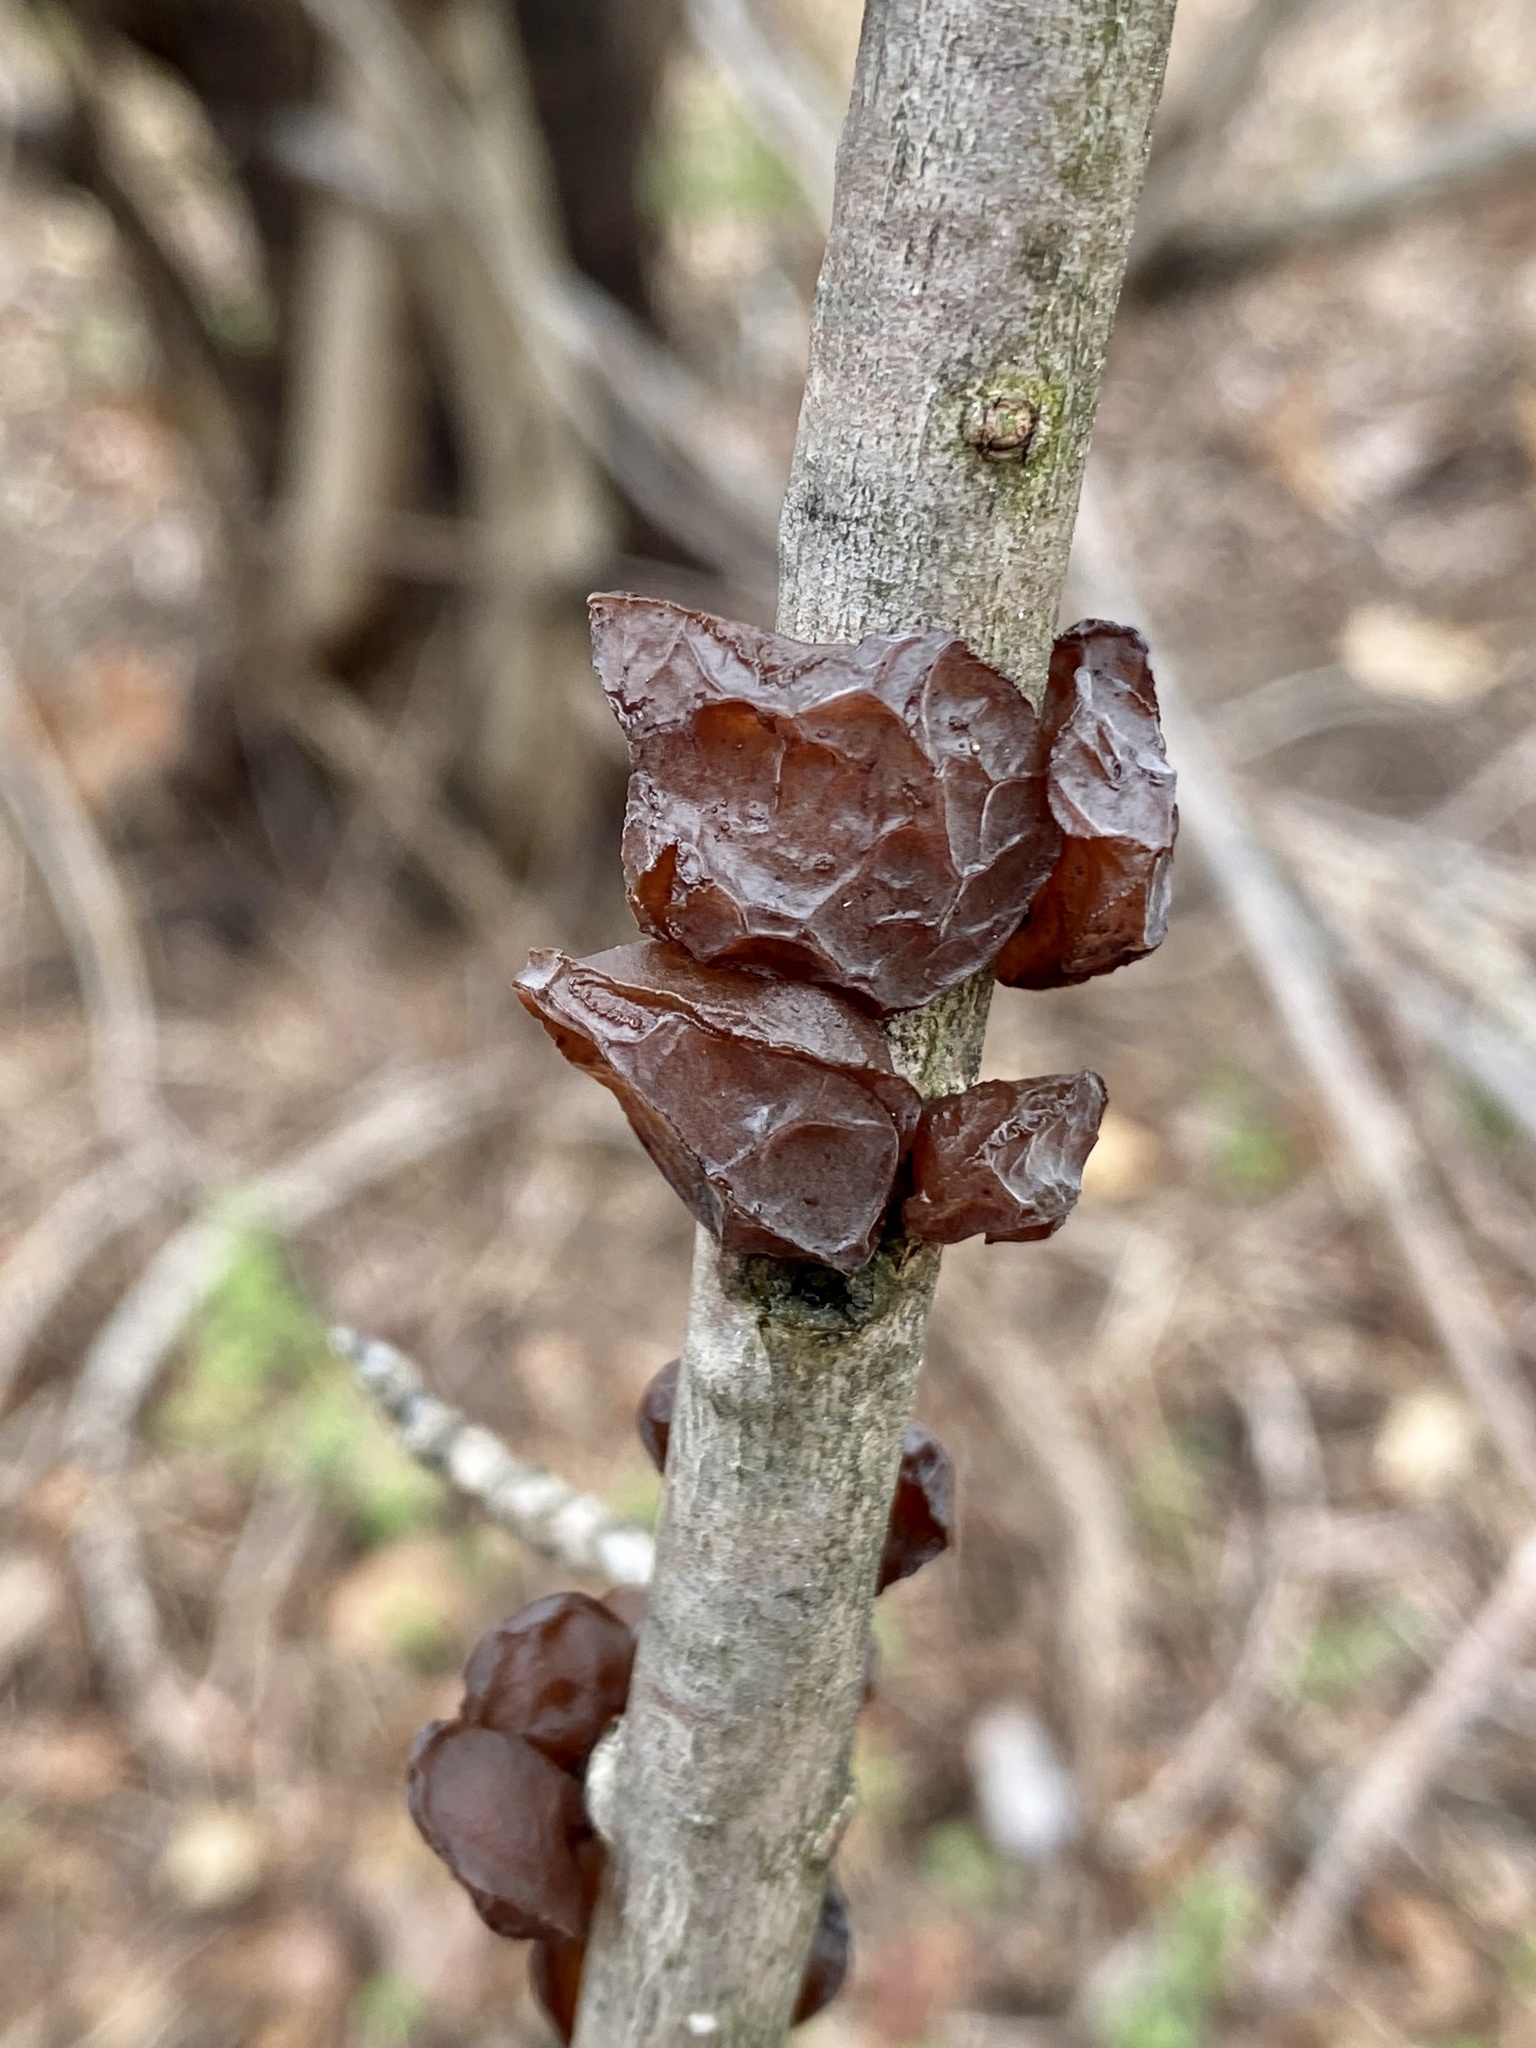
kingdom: Fungi
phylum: Basidiomycota
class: Agaricomycetes
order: Auriculariales
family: Auriculariaceae
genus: Exidia
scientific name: Exidia
